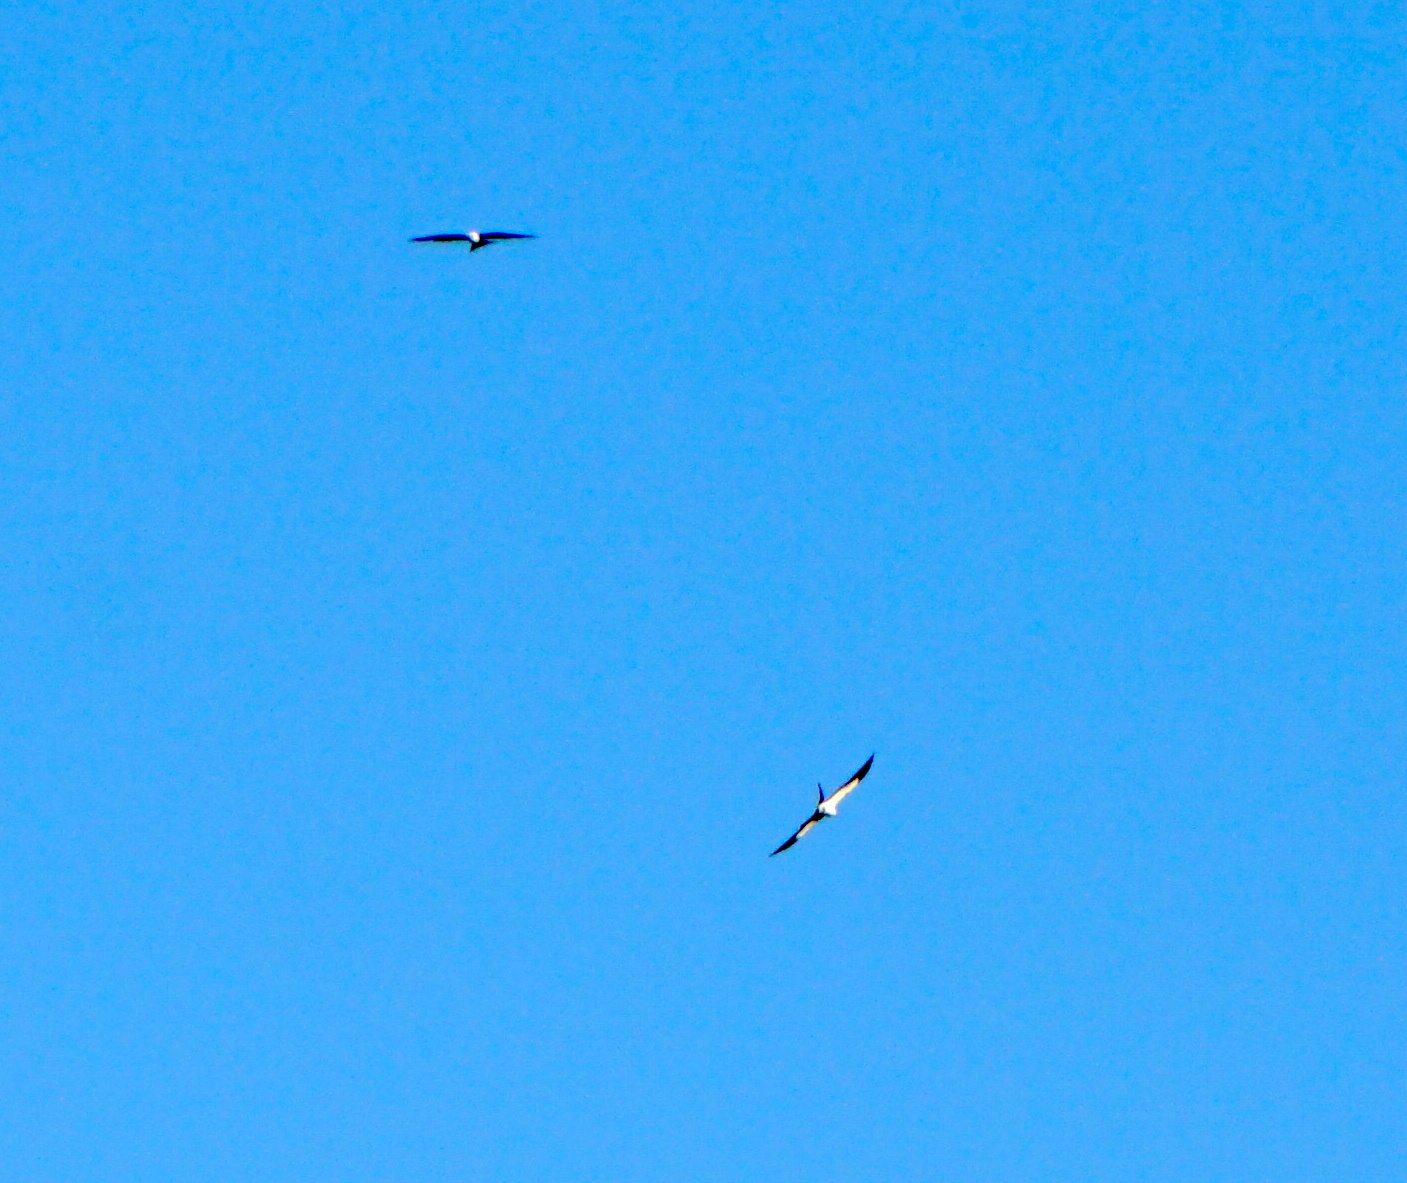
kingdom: Animalia
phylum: Chordata
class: Aves
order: Accipitriformes
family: Accipitridae
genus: Elanoides
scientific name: Elanoides forficatus
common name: Swallow-tailed kite
